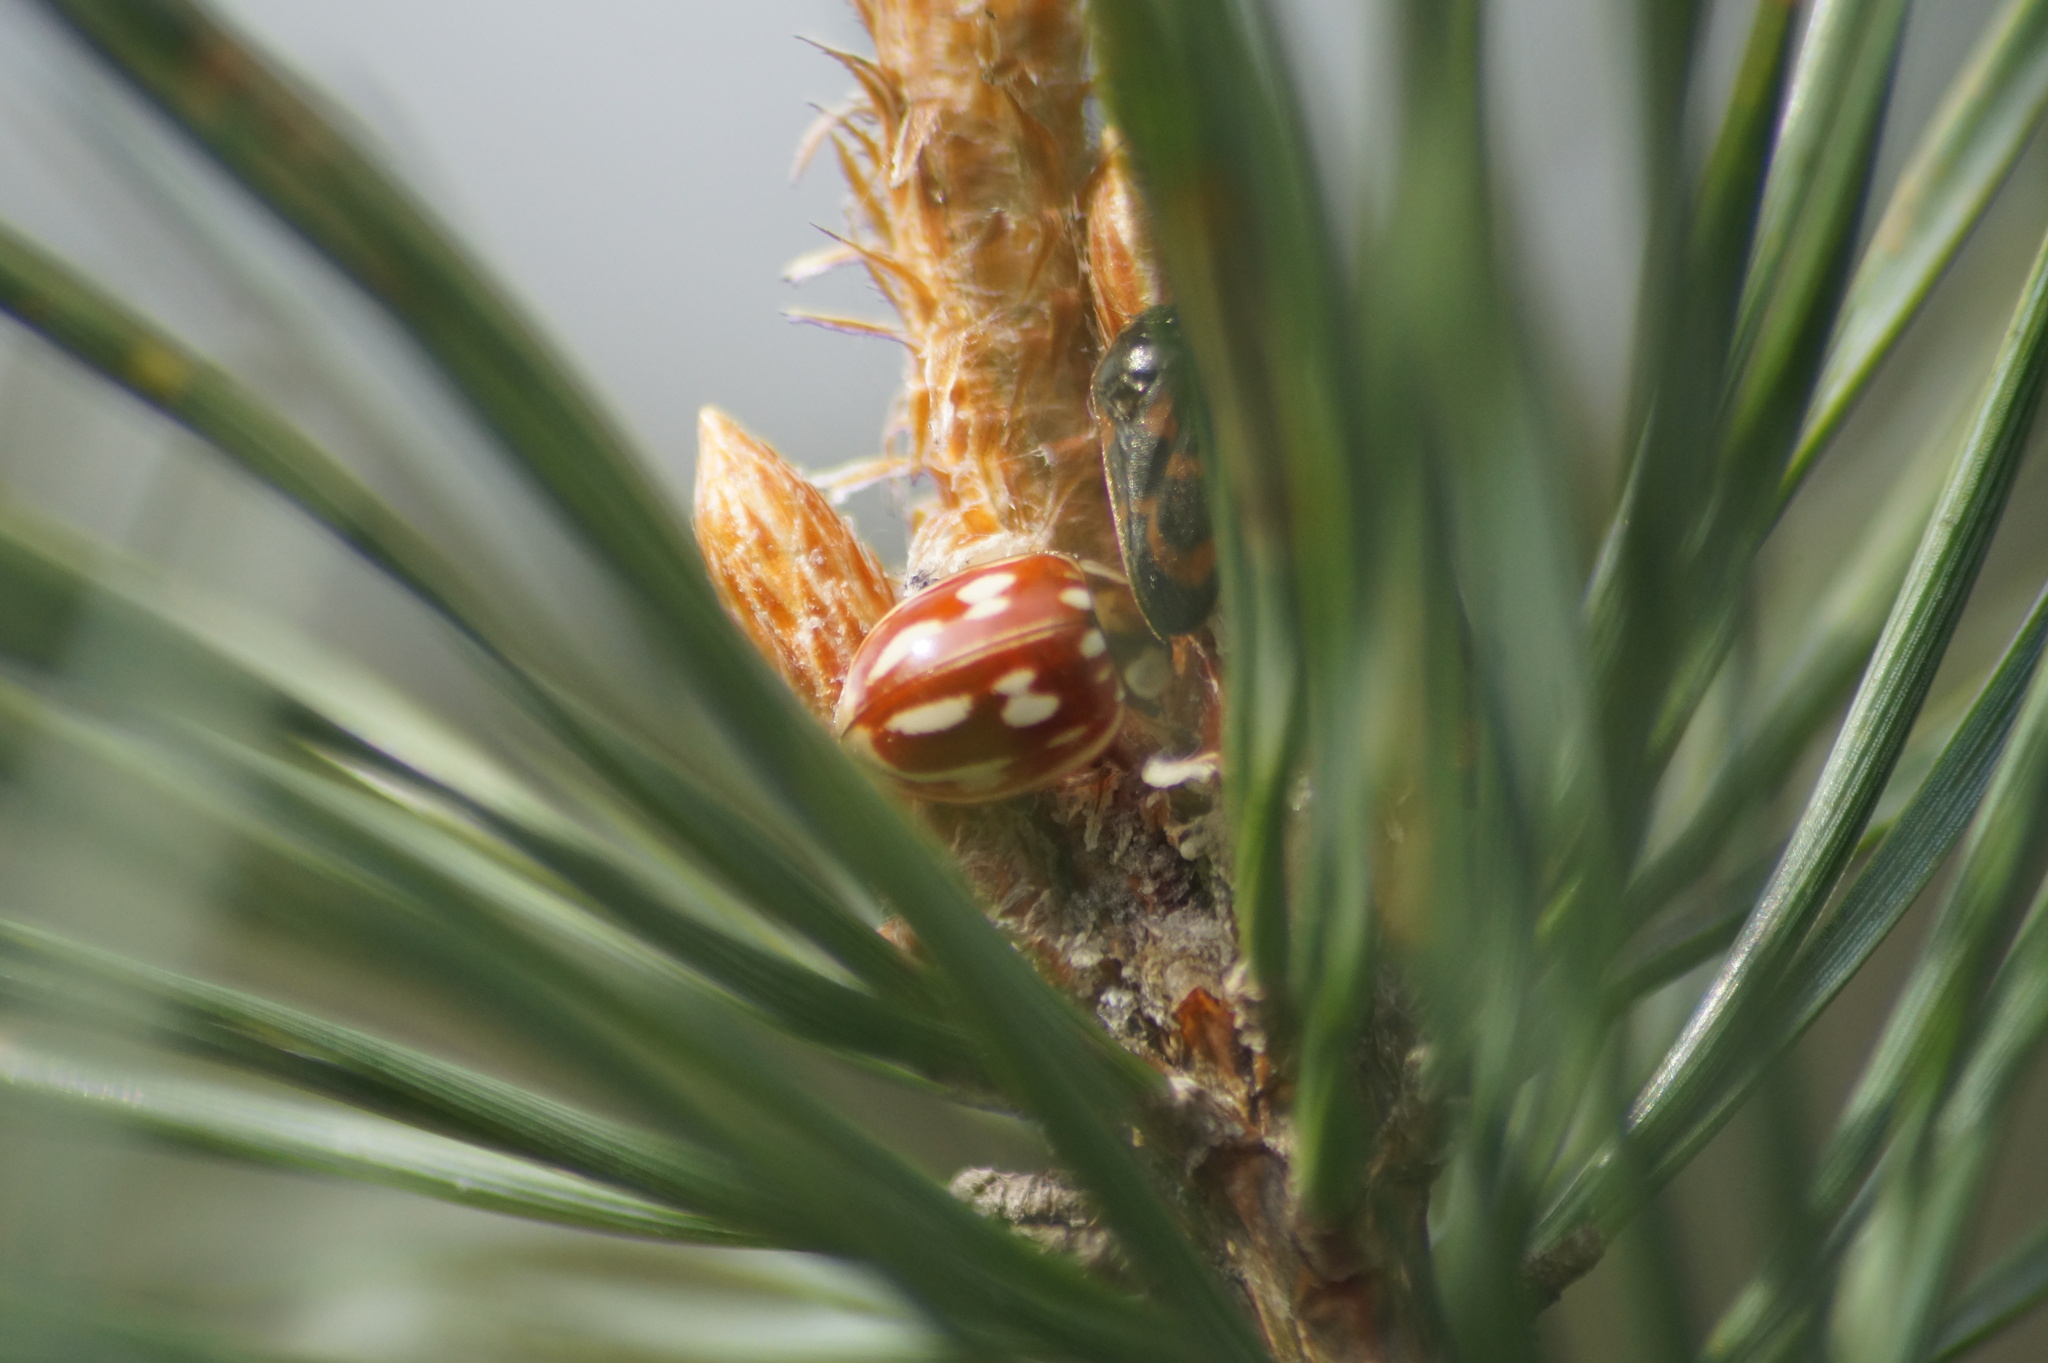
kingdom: Animalia
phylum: Arthropoda
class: Insecta
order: Hemiptera
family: Cercopidae
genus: Haematoloma
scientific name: Haematoloma dorsata
